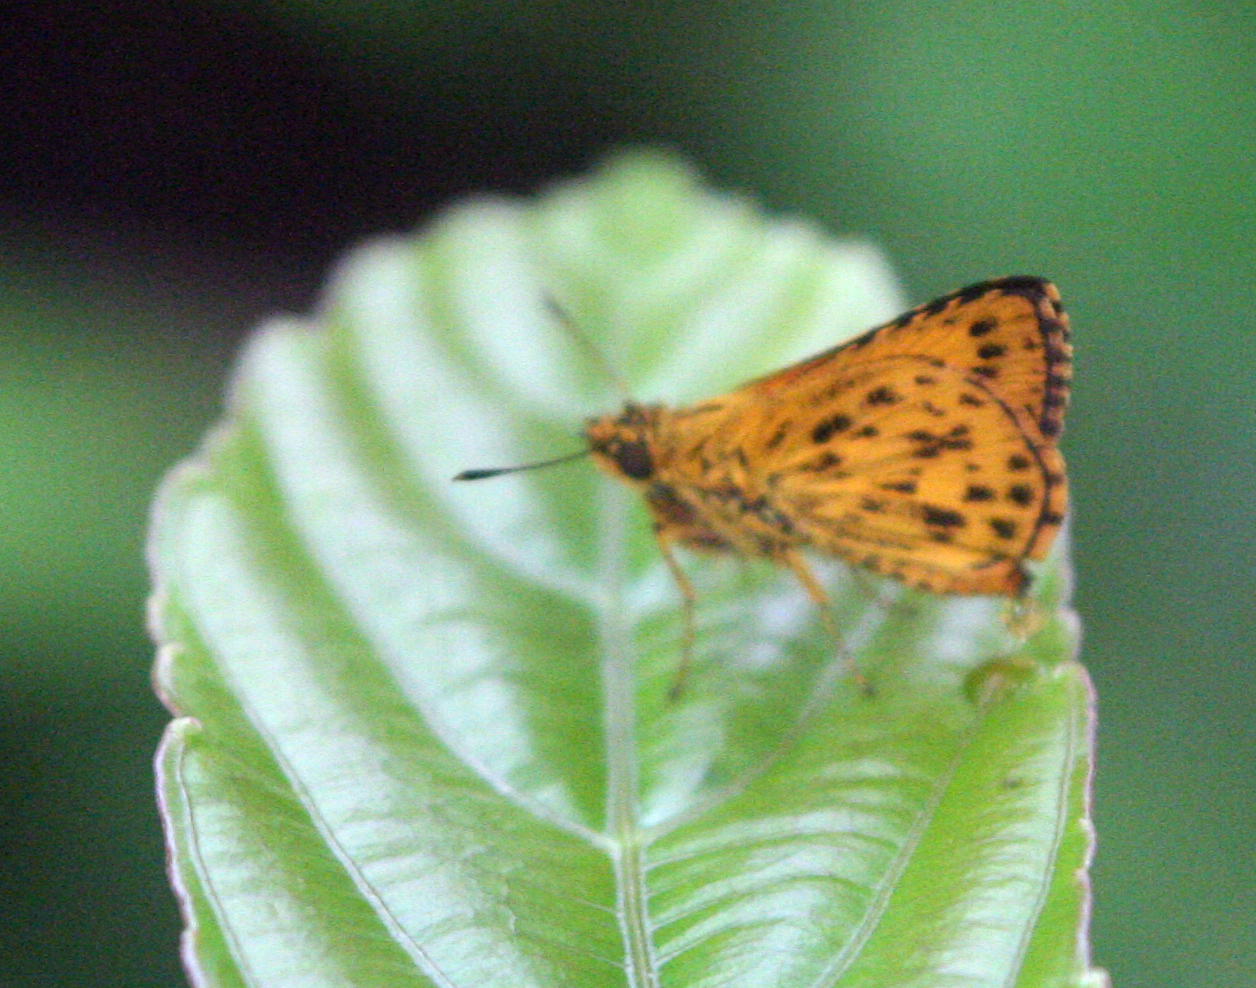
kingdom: Animalia
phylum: Arthropoda
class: Insecta
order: Lepidoptera
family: Hesperiidae
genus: Ampittia
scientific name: Ampittia dioscorides
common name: Common bush hopper
